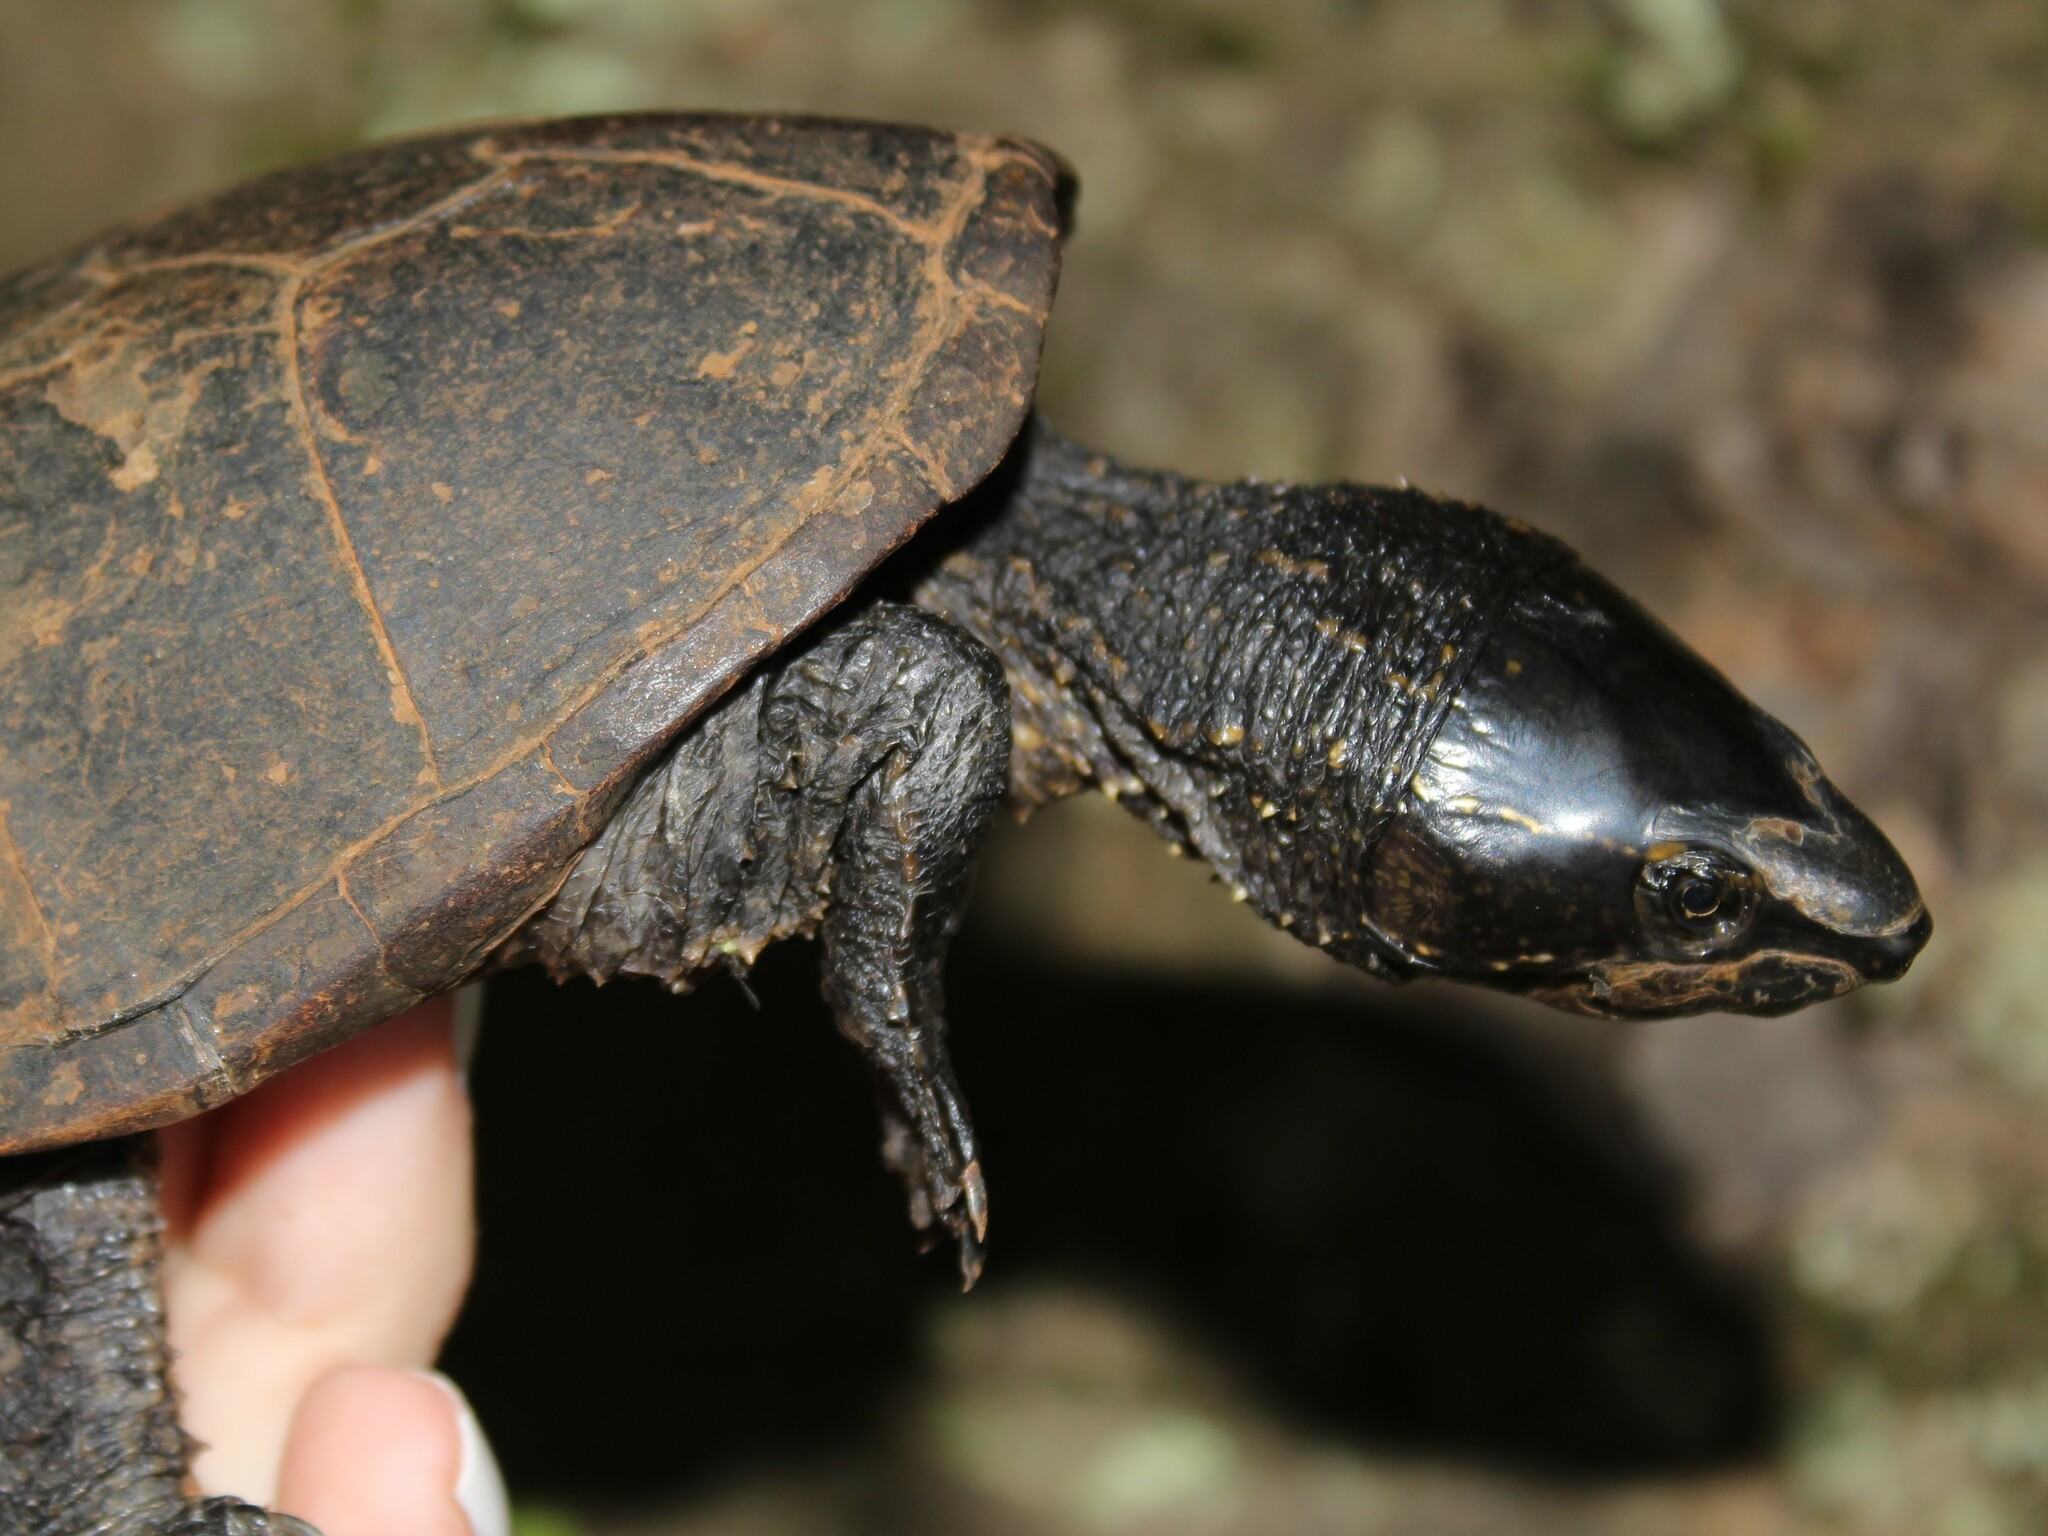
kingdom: Animalia
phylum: Chordata
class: Testudines
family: Kinosternidae
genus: Sternotherus
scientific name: Sternotherus odoratus
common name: Common musk turtle
